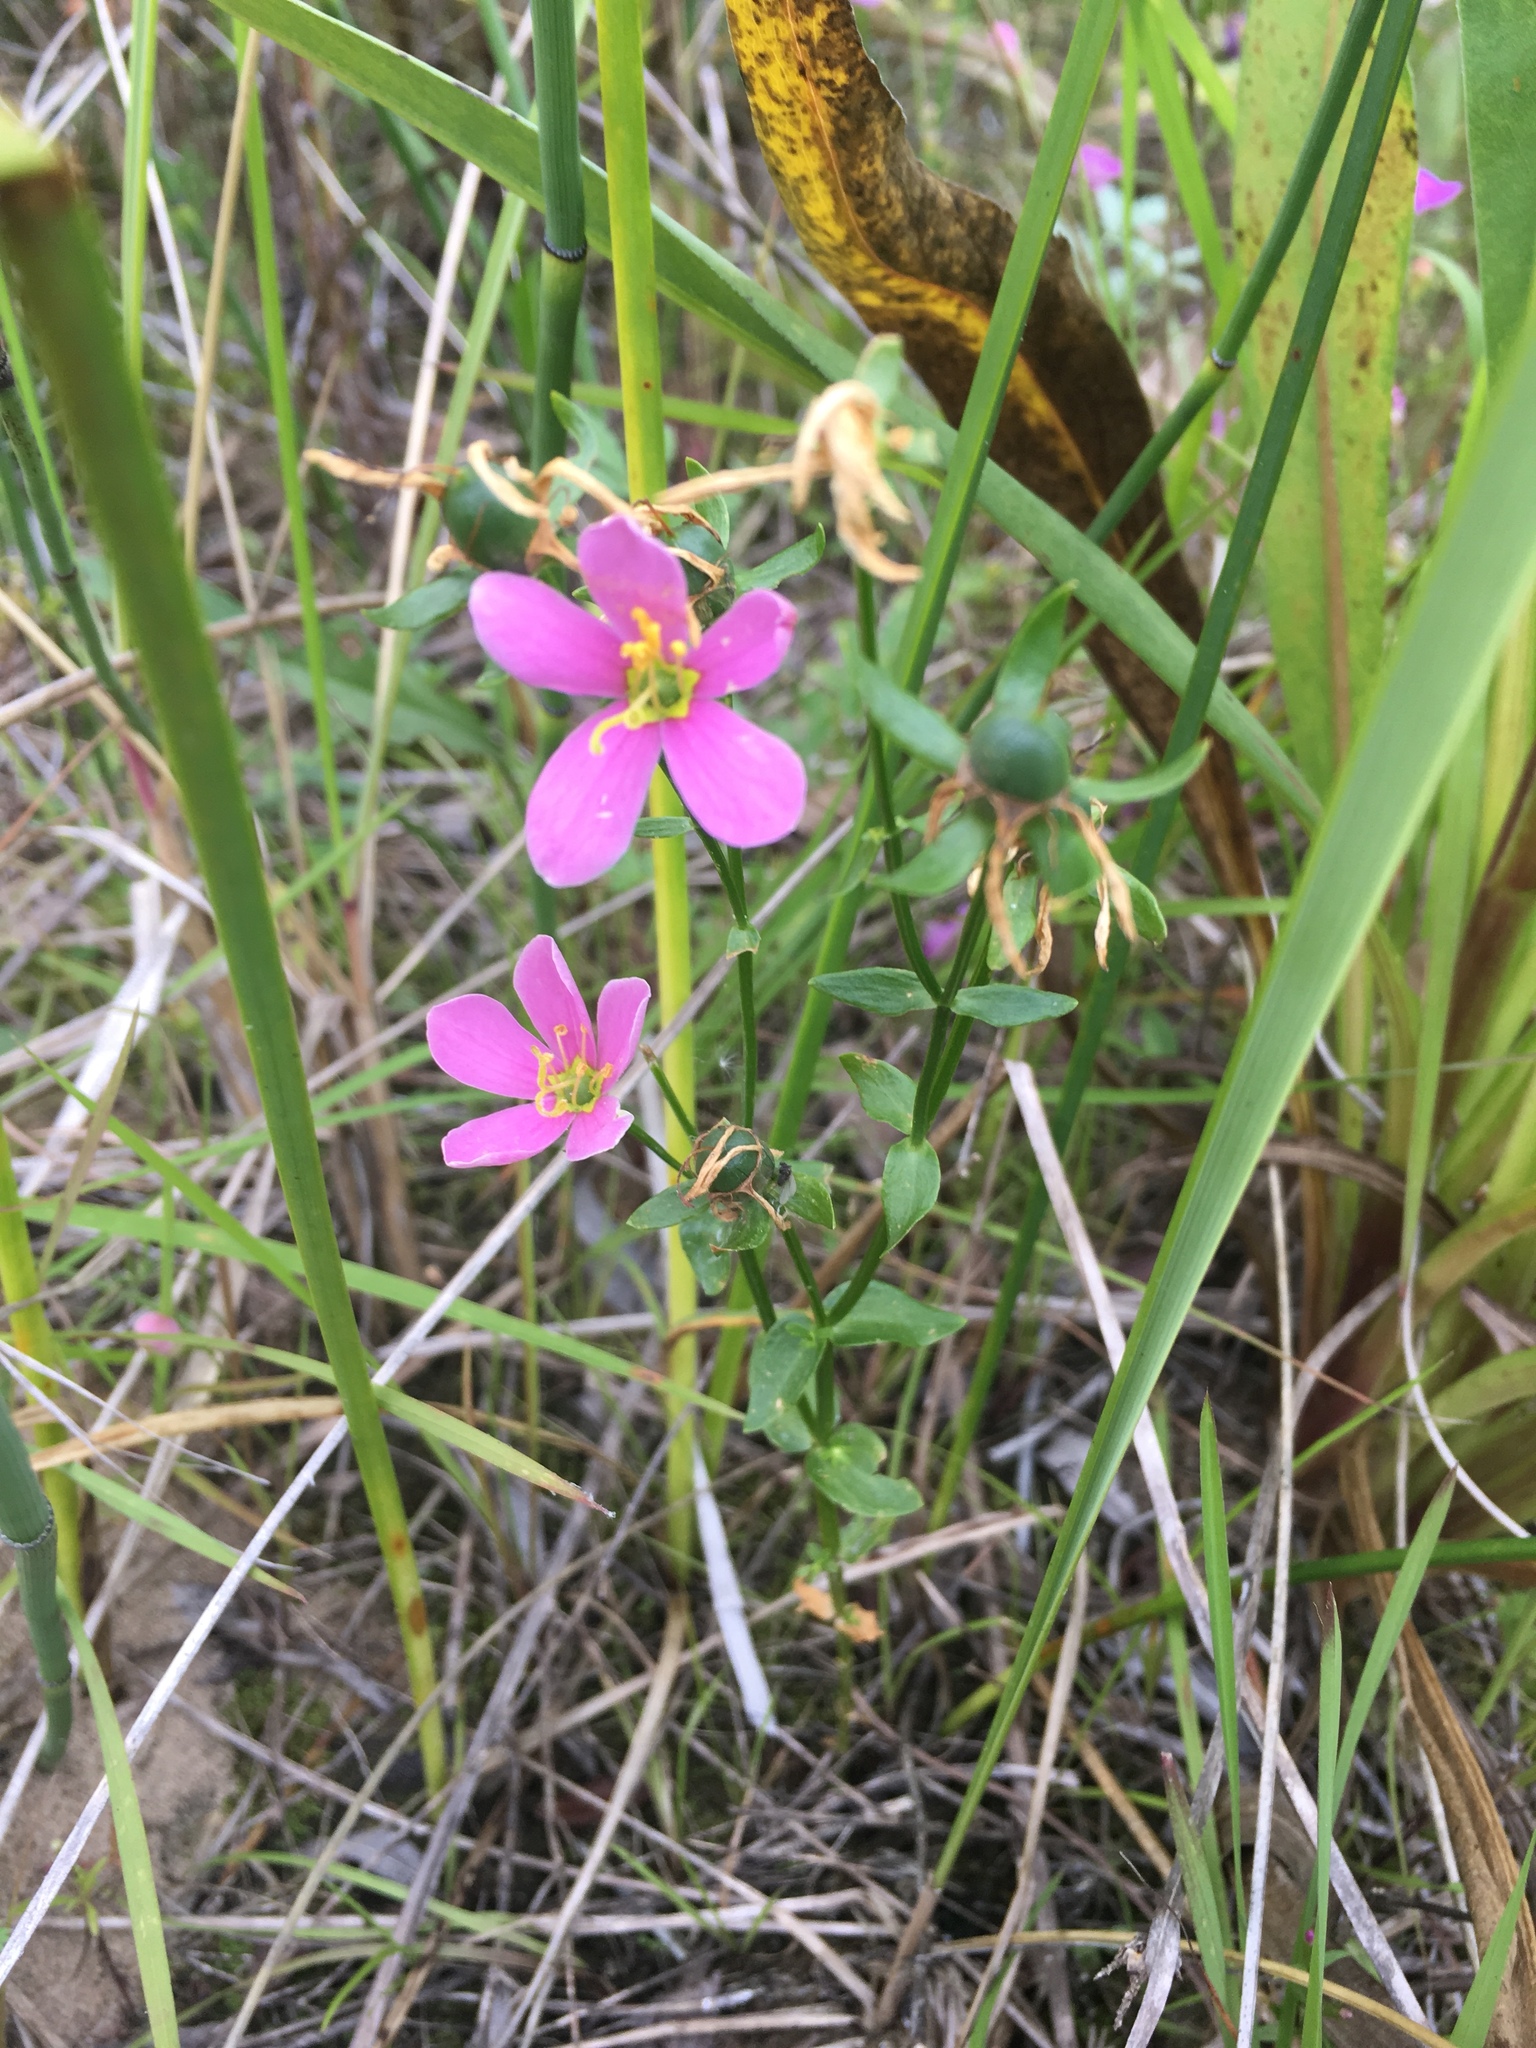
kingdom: Plantae
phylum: Tracheophyta
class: Magnoliopsida
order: Gentianales
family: Gentianaceae
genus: Sabatia
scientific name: Sabatia angularis
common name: Rose-pink
